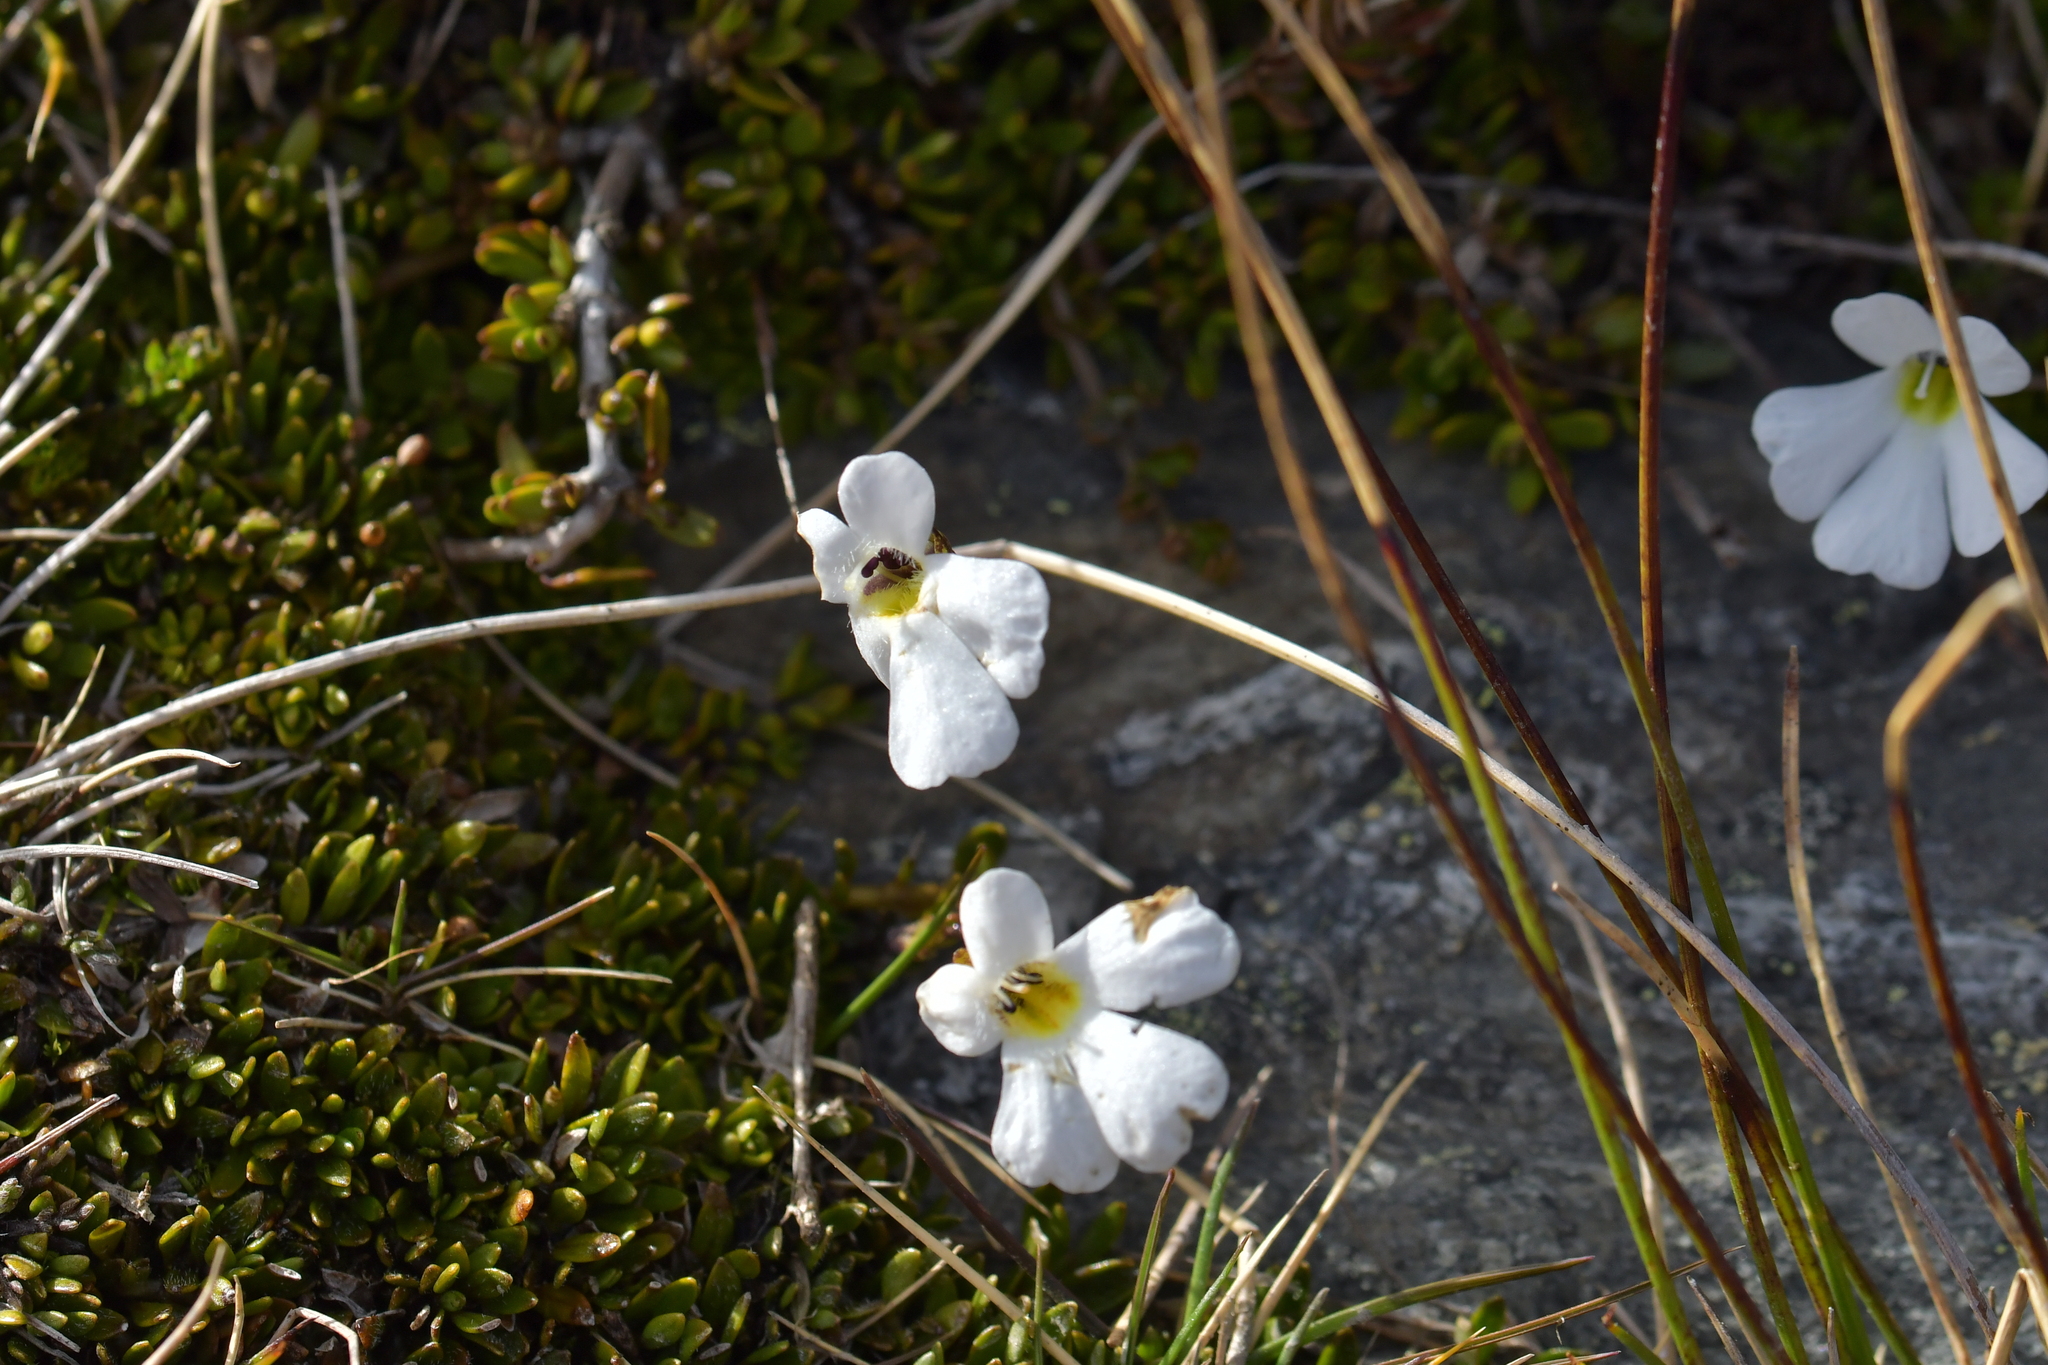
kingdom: Plantae
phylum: Tracheophyta
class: Magnoliopsida
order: Lamiales
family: Plantaginaceae
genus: Ourisia
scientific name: Ourisia caespitosa
